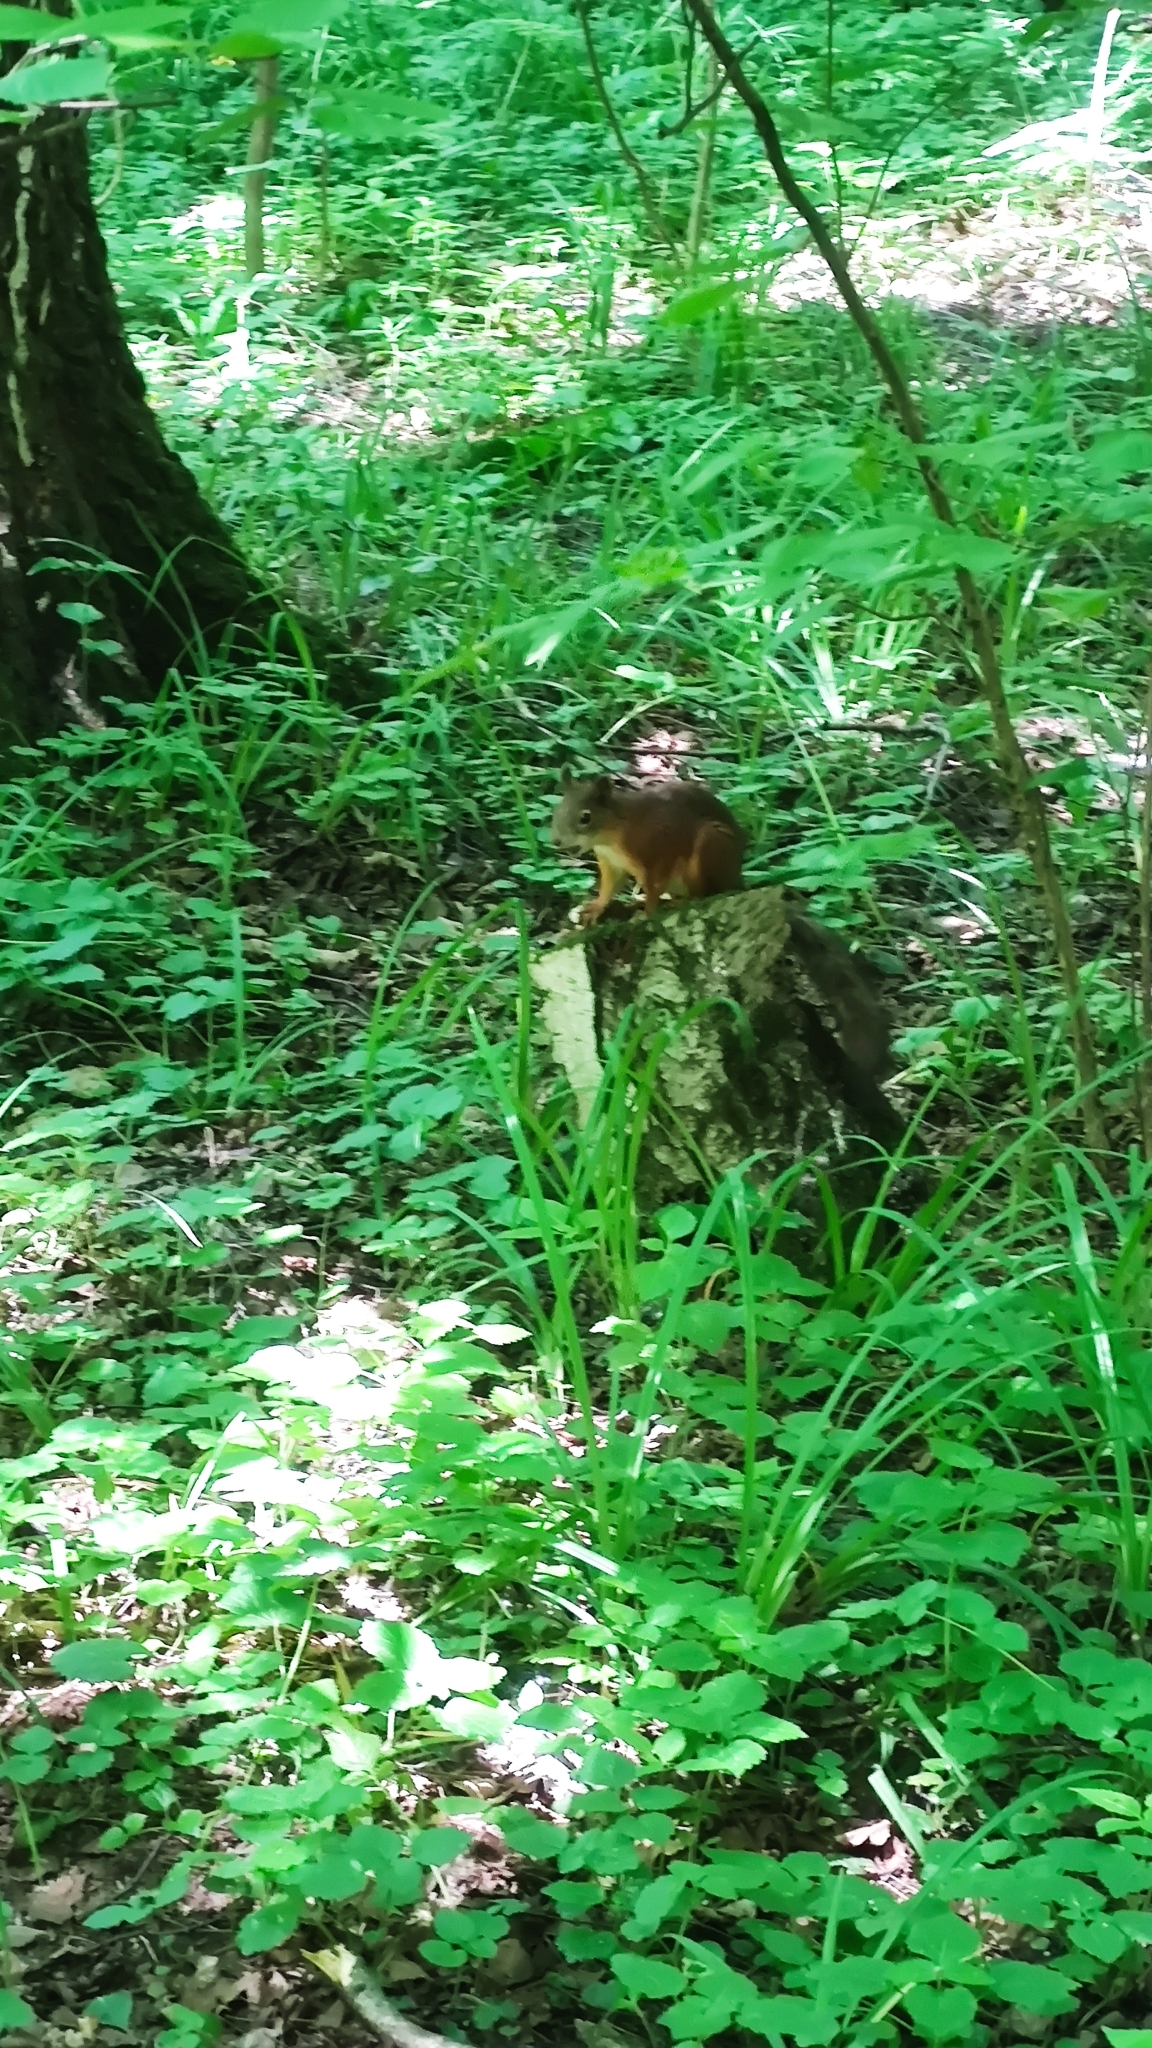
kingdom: Animalia
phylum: Chordata
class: Mammalia
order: Rodentia
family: Sciuridae
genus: Sciurus
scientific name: Sciurus vulgaris
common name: Eurasian red squirrel
